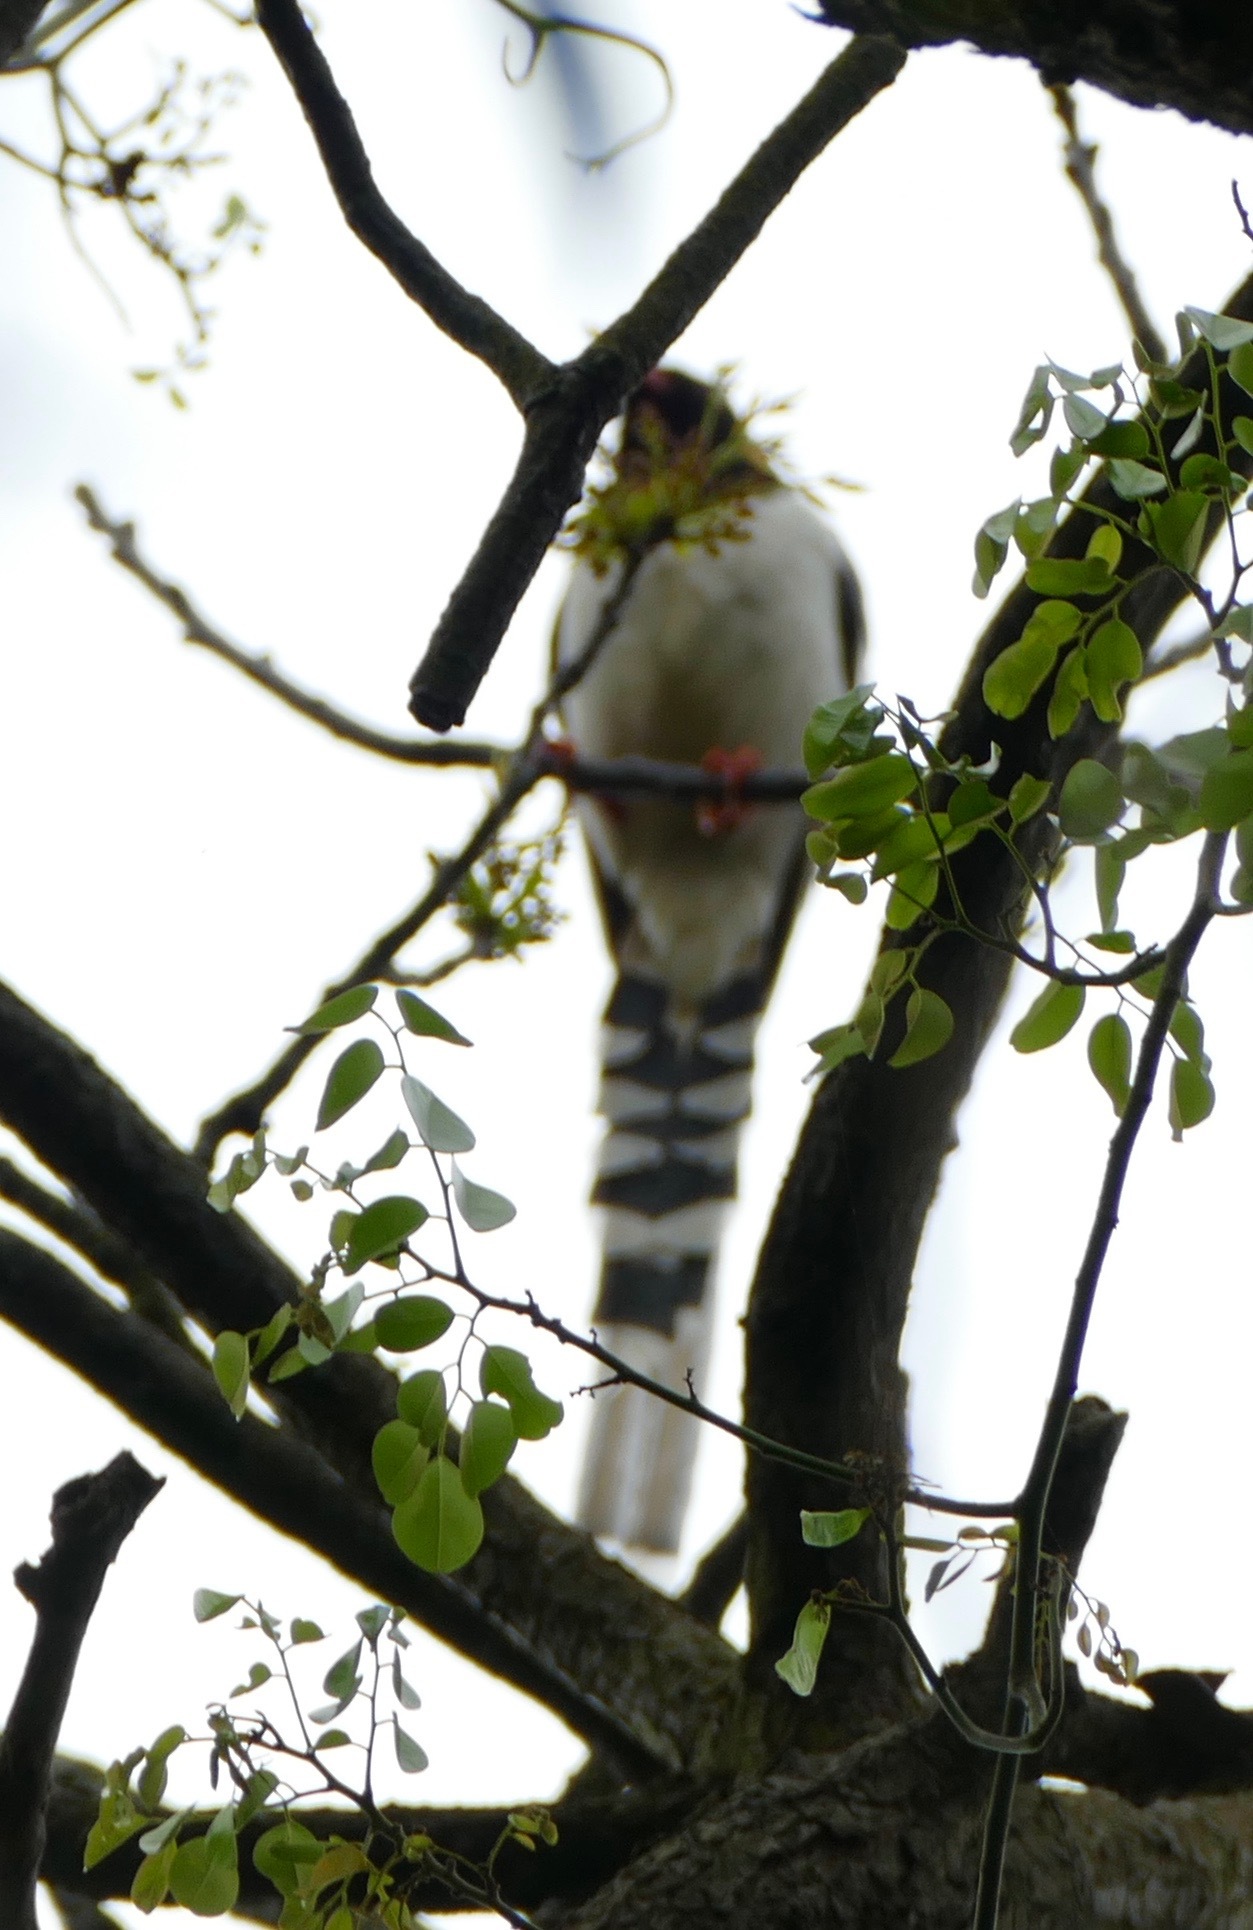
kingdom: Animalia
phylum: Chordata
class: Aves
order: Passeriformes
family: Corvidae
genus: Urocissa
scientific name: Urocissa erythroryncha
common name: Red-billed blue magpie
